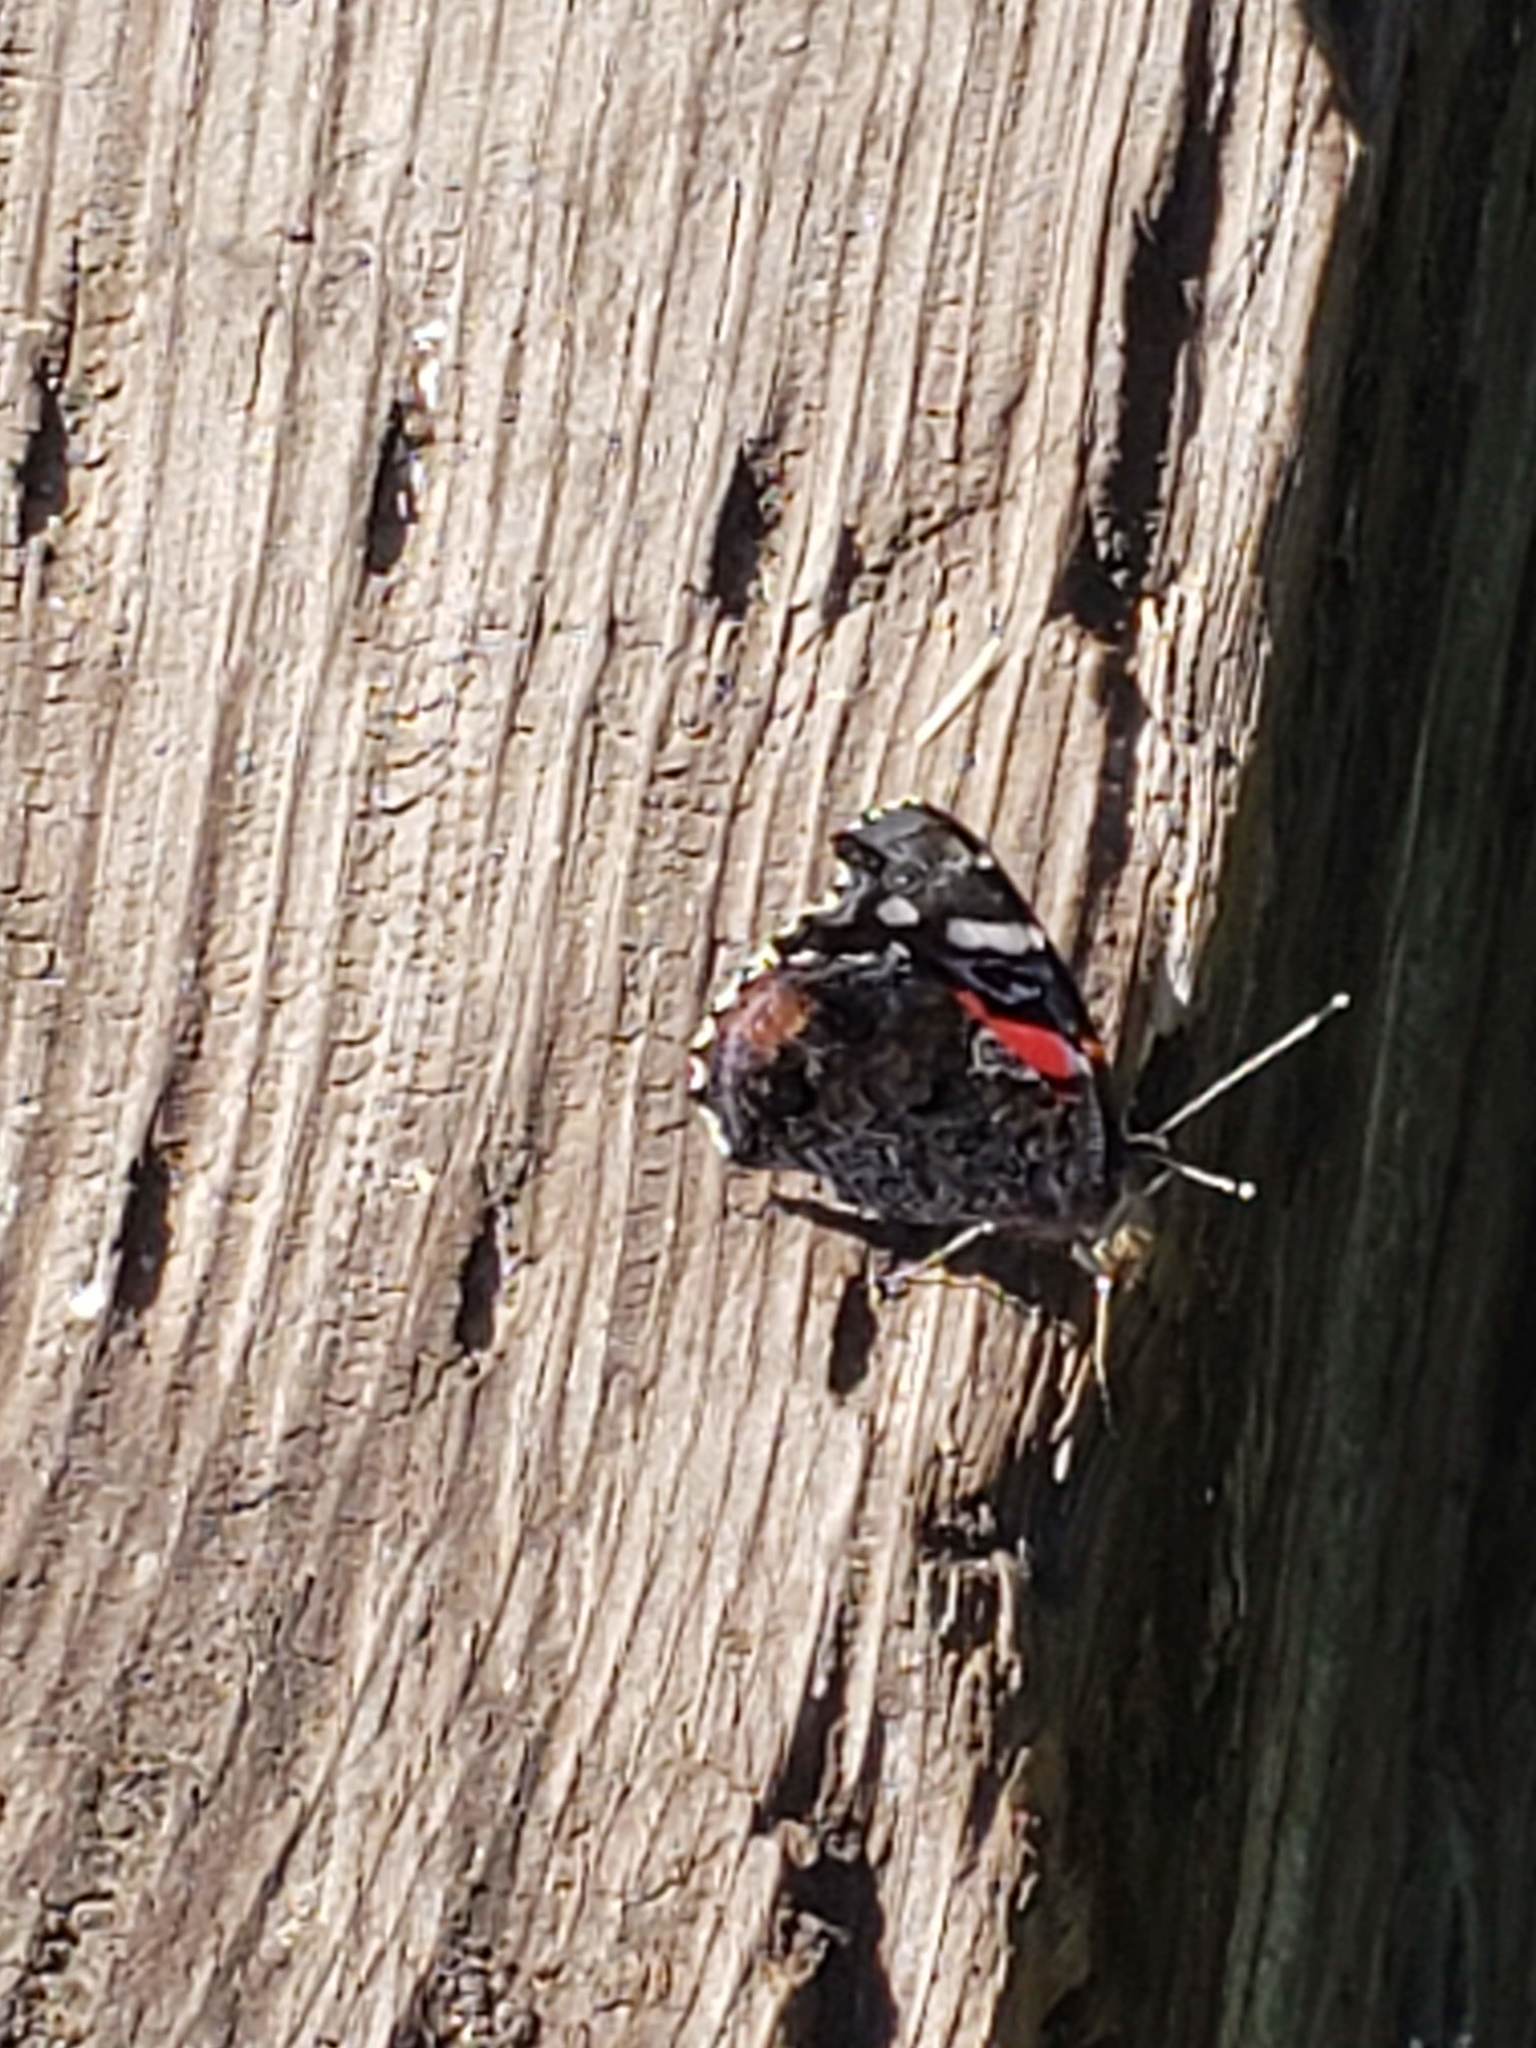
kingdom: Animalia
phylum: Arthropoda
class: Insecta
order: Lepidoptera
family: Nymphalidae
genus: Vanessa
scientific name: Vanessa atalanta
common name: Red admiral
